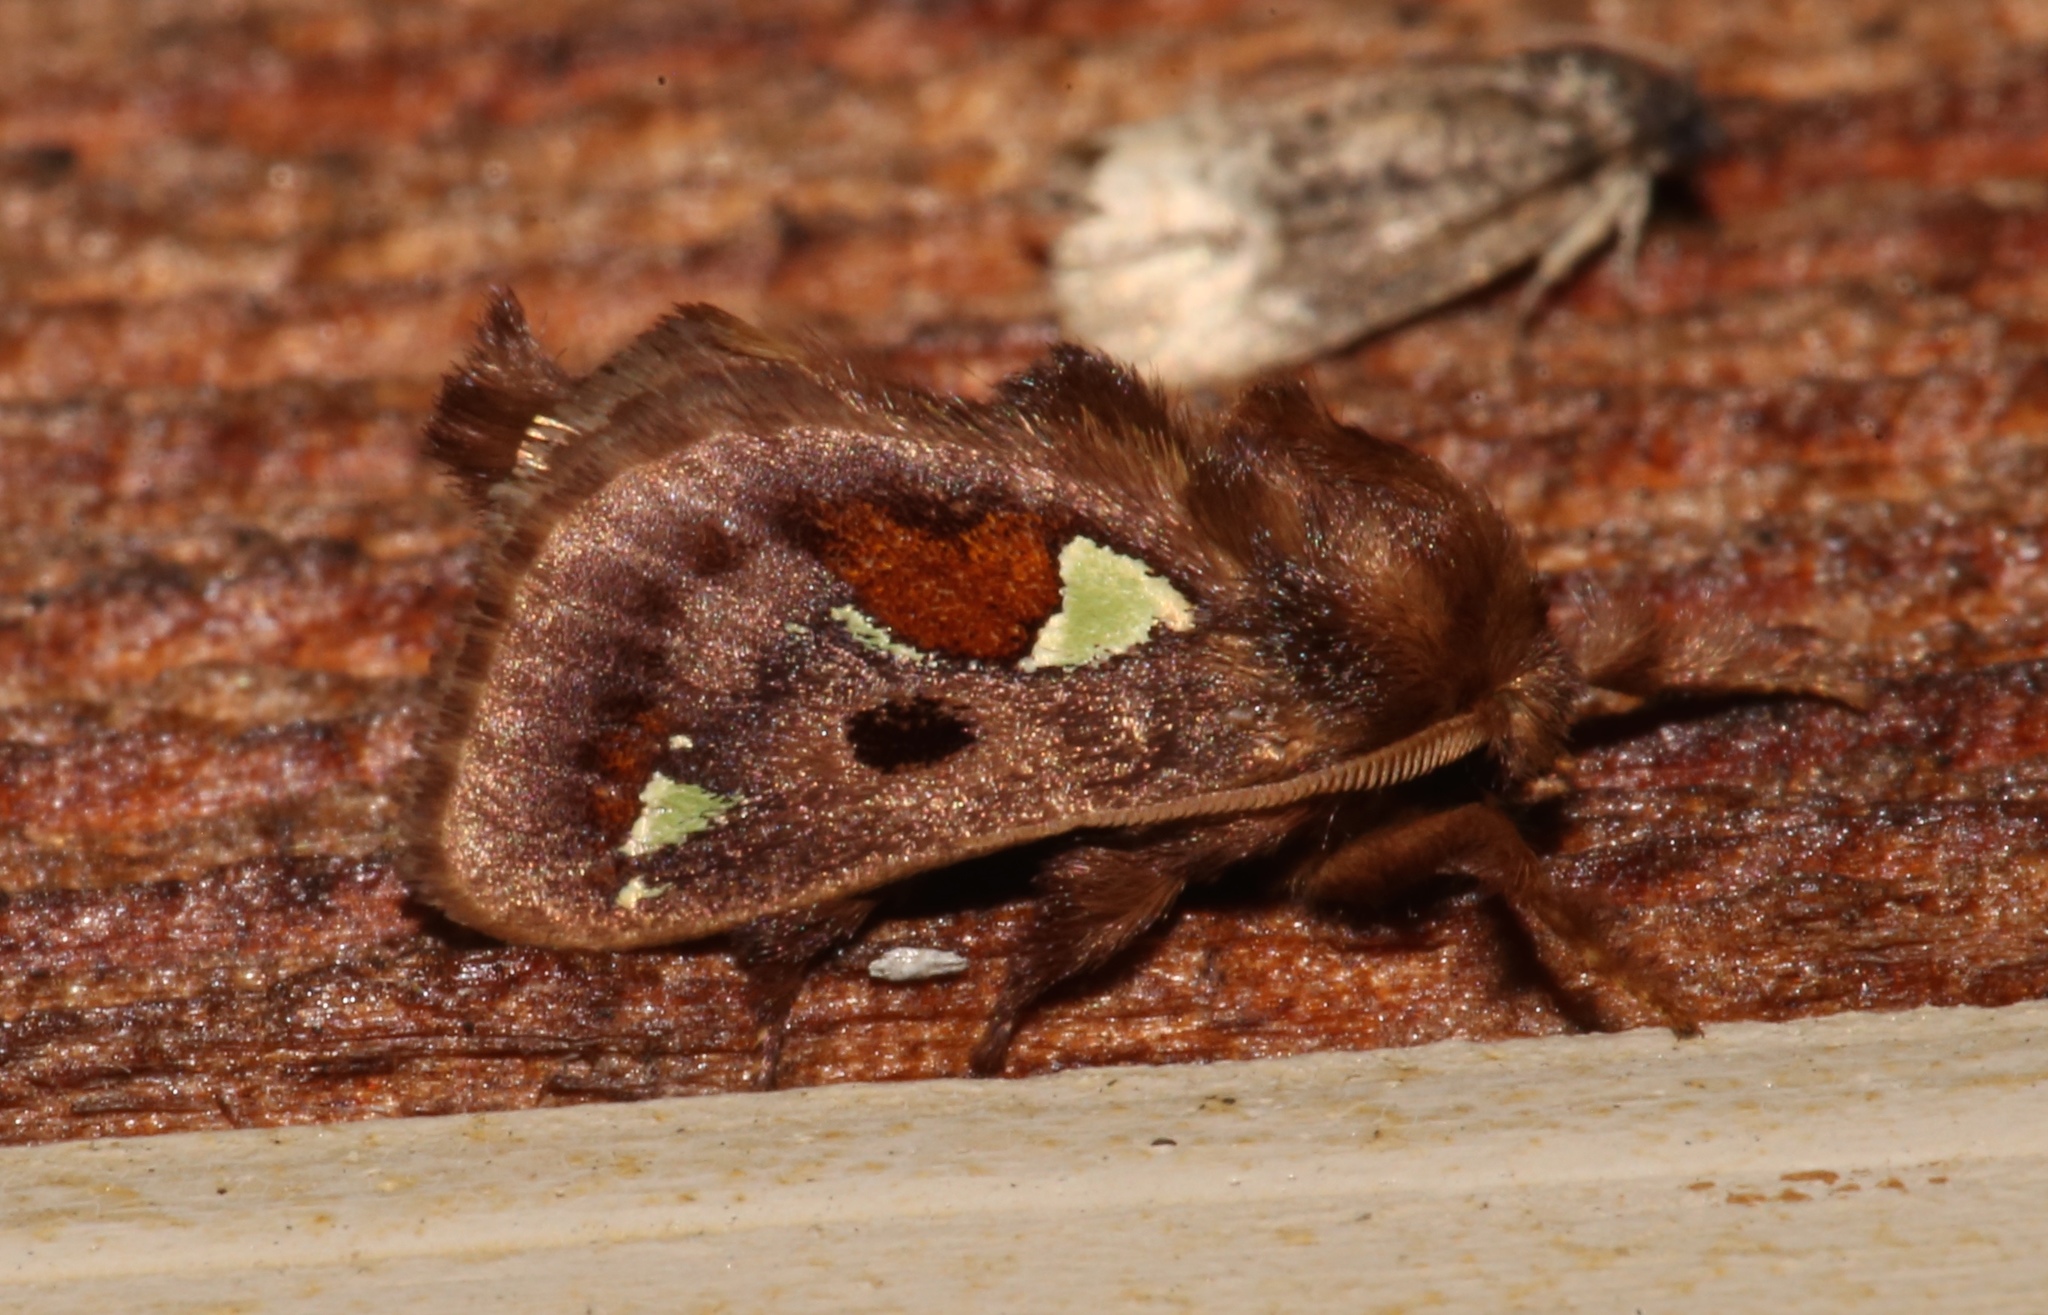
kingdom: Animalia
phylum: Arthropoda
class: Insecta
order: Lepidoptera
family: Limacodidae
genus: Euclea
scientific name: Euclea delphinii
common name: Spiny oak-slug moth
